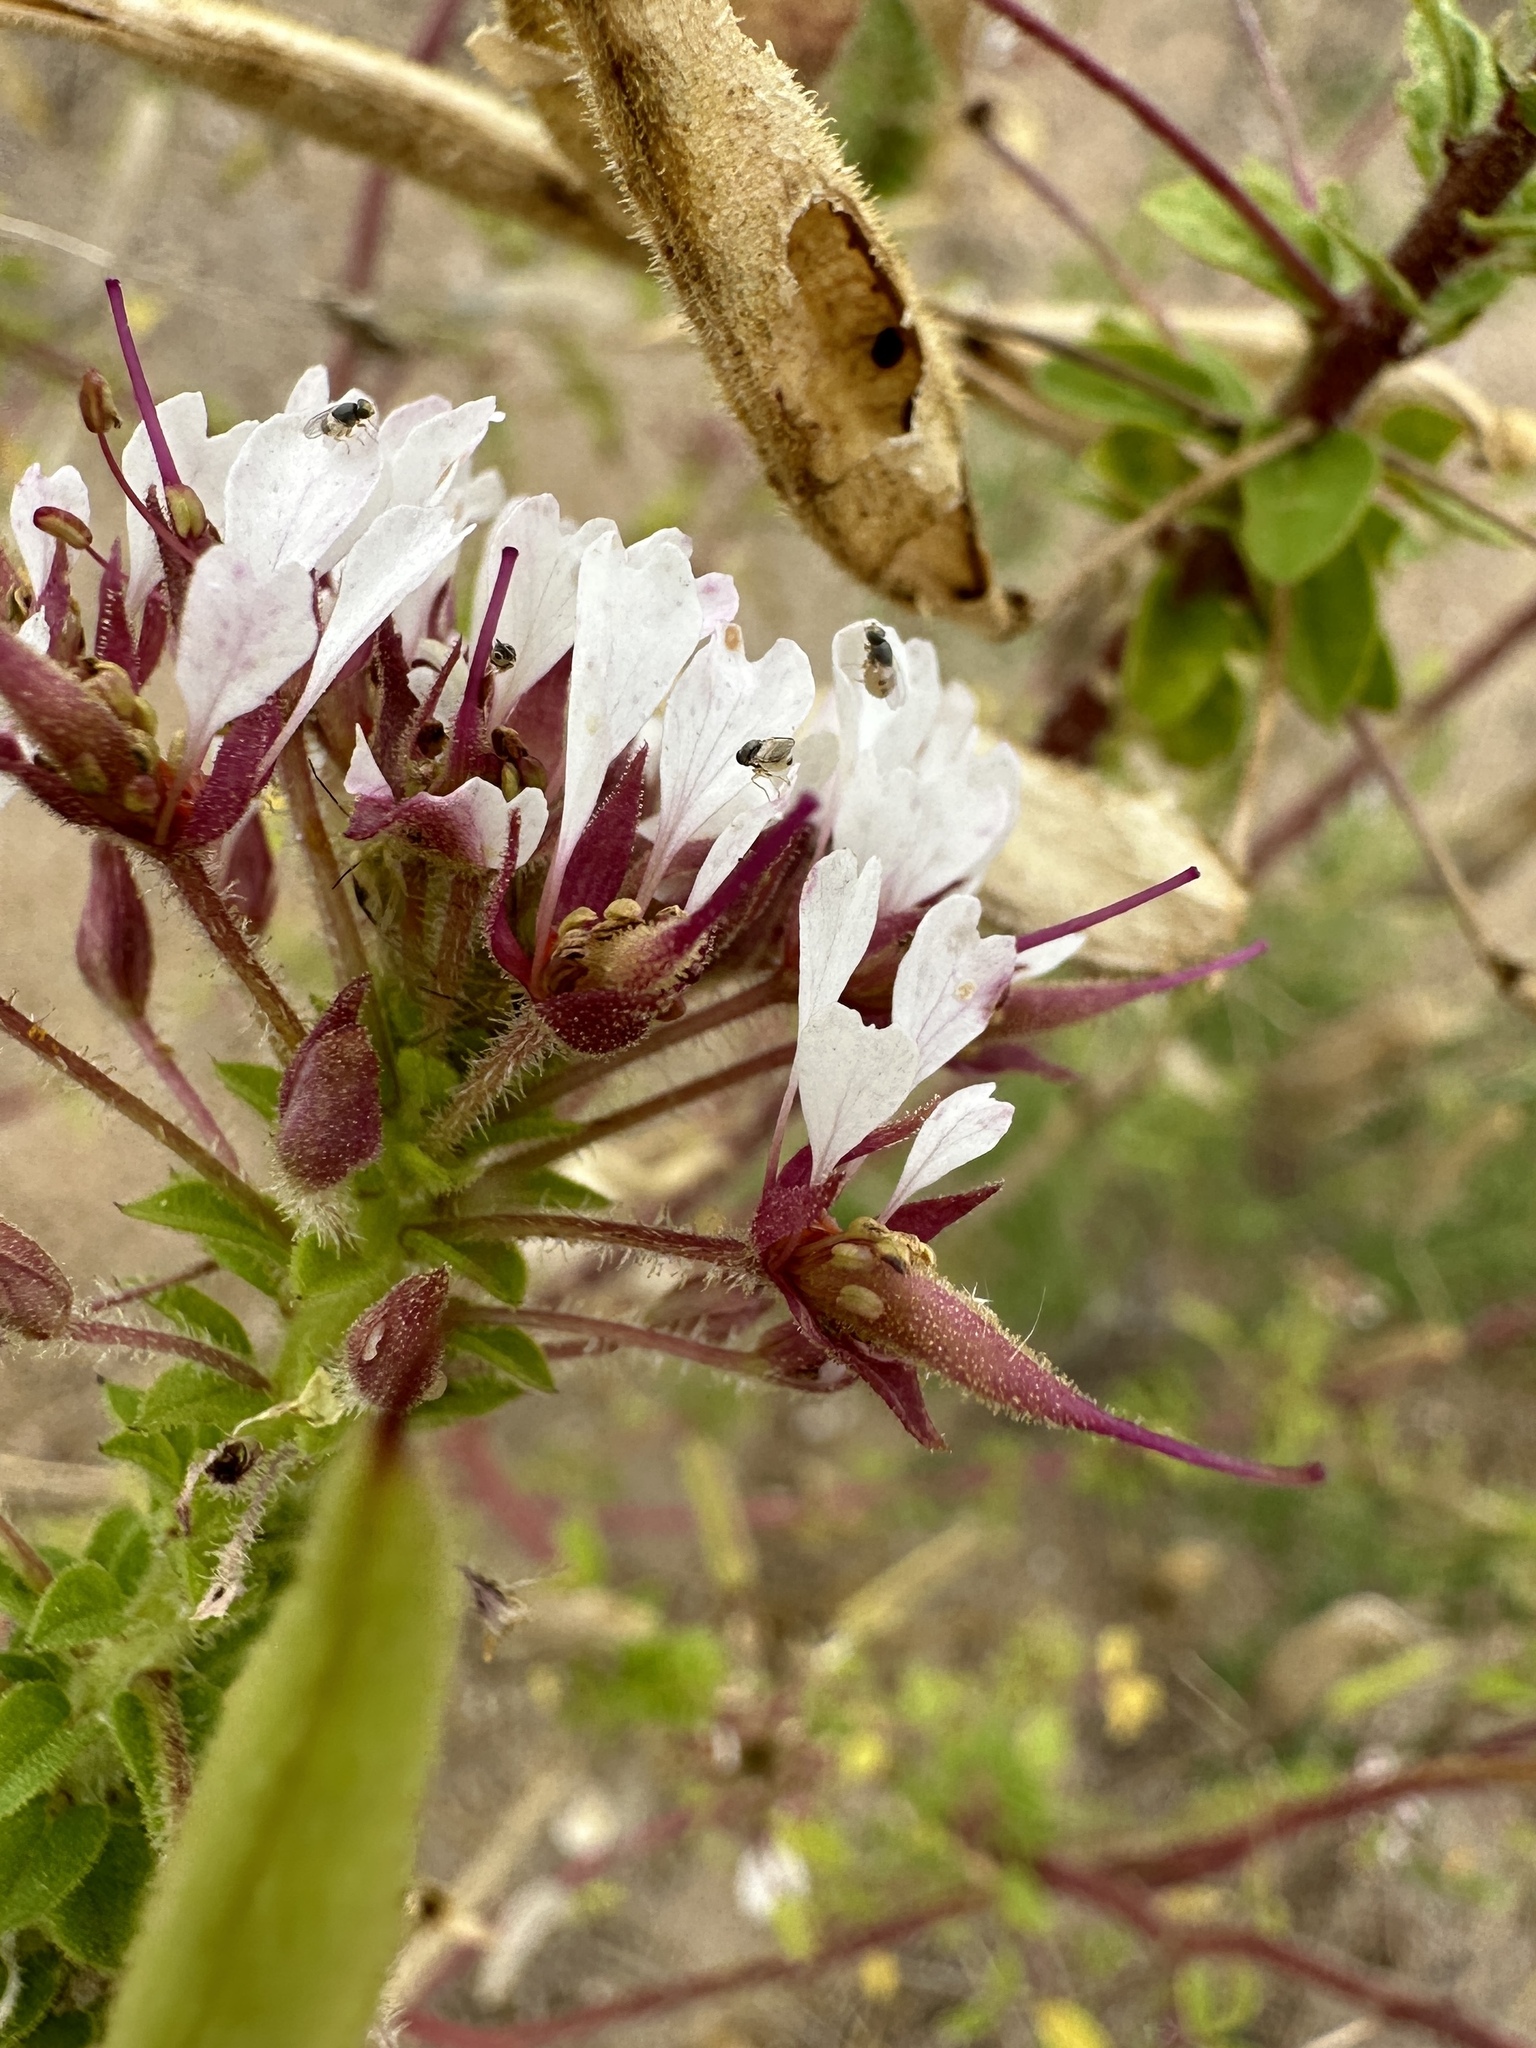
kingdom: Plantae
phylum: Tracheophyta
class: Magnoliopsida
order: Brassicales
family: Cleomaceae
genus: Polanisia
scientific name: Polanisia dodecandra
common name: Clammyweed
